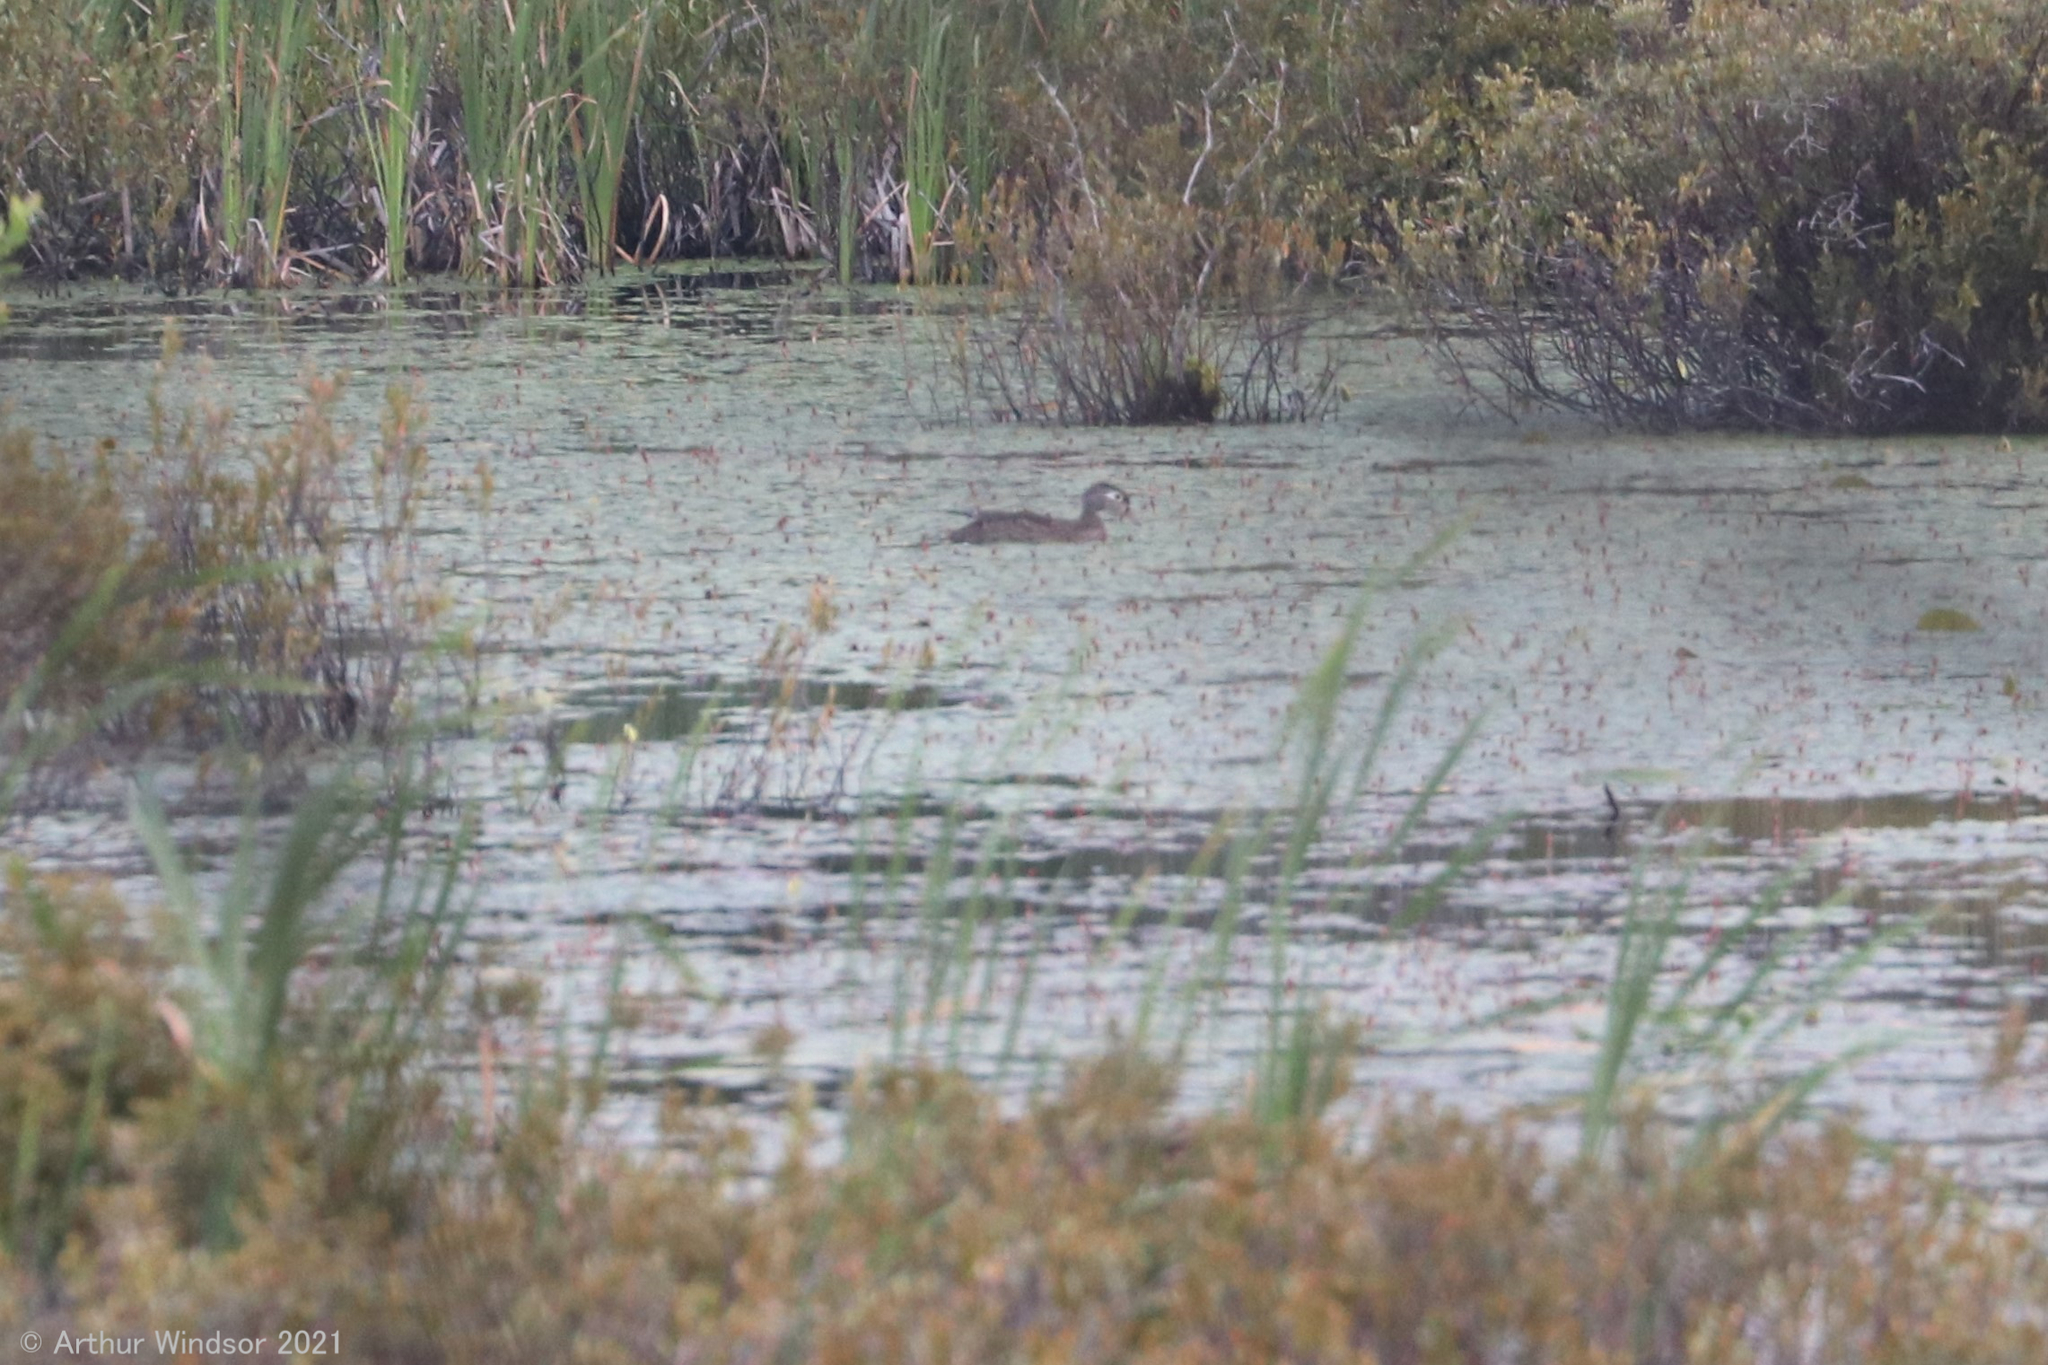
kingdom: Animalia
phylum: Chordata
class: Aves
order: Anseriformes
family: Anatidae
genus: Aix
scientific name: Aix sponsa
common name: Wood duck
